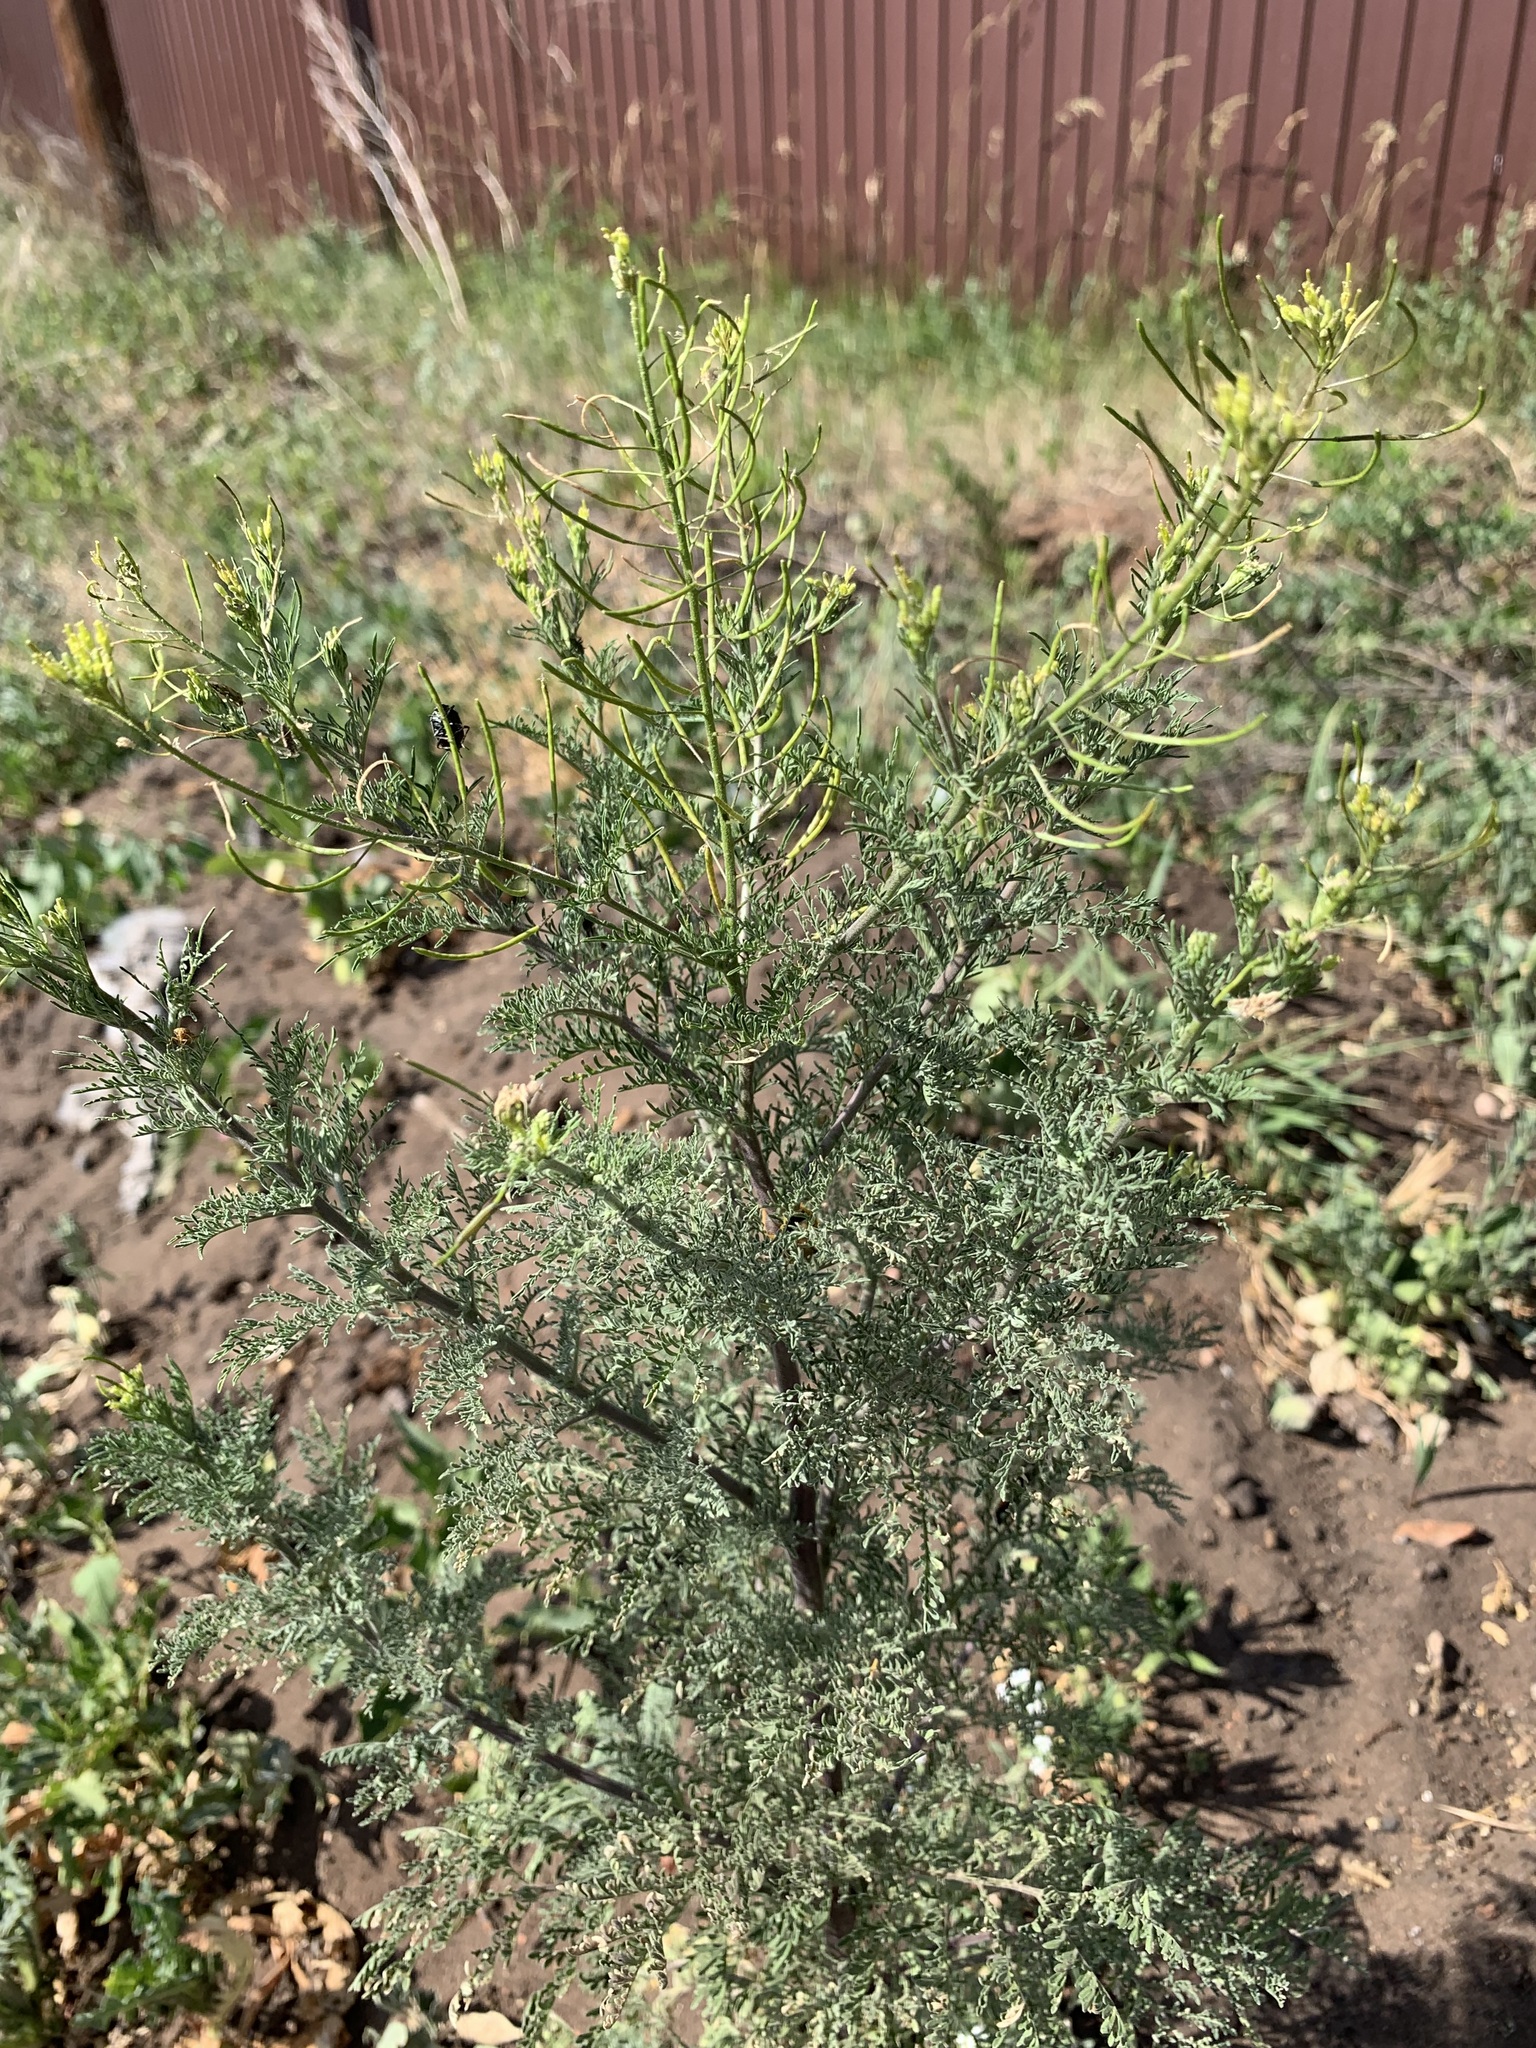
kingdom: Plantae
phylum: Tracheophyta
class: Magnoliopsida
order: Brassicales
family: Brassicaceae
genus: Descurainia
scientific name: Descurainia sophia
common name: Flixweed
